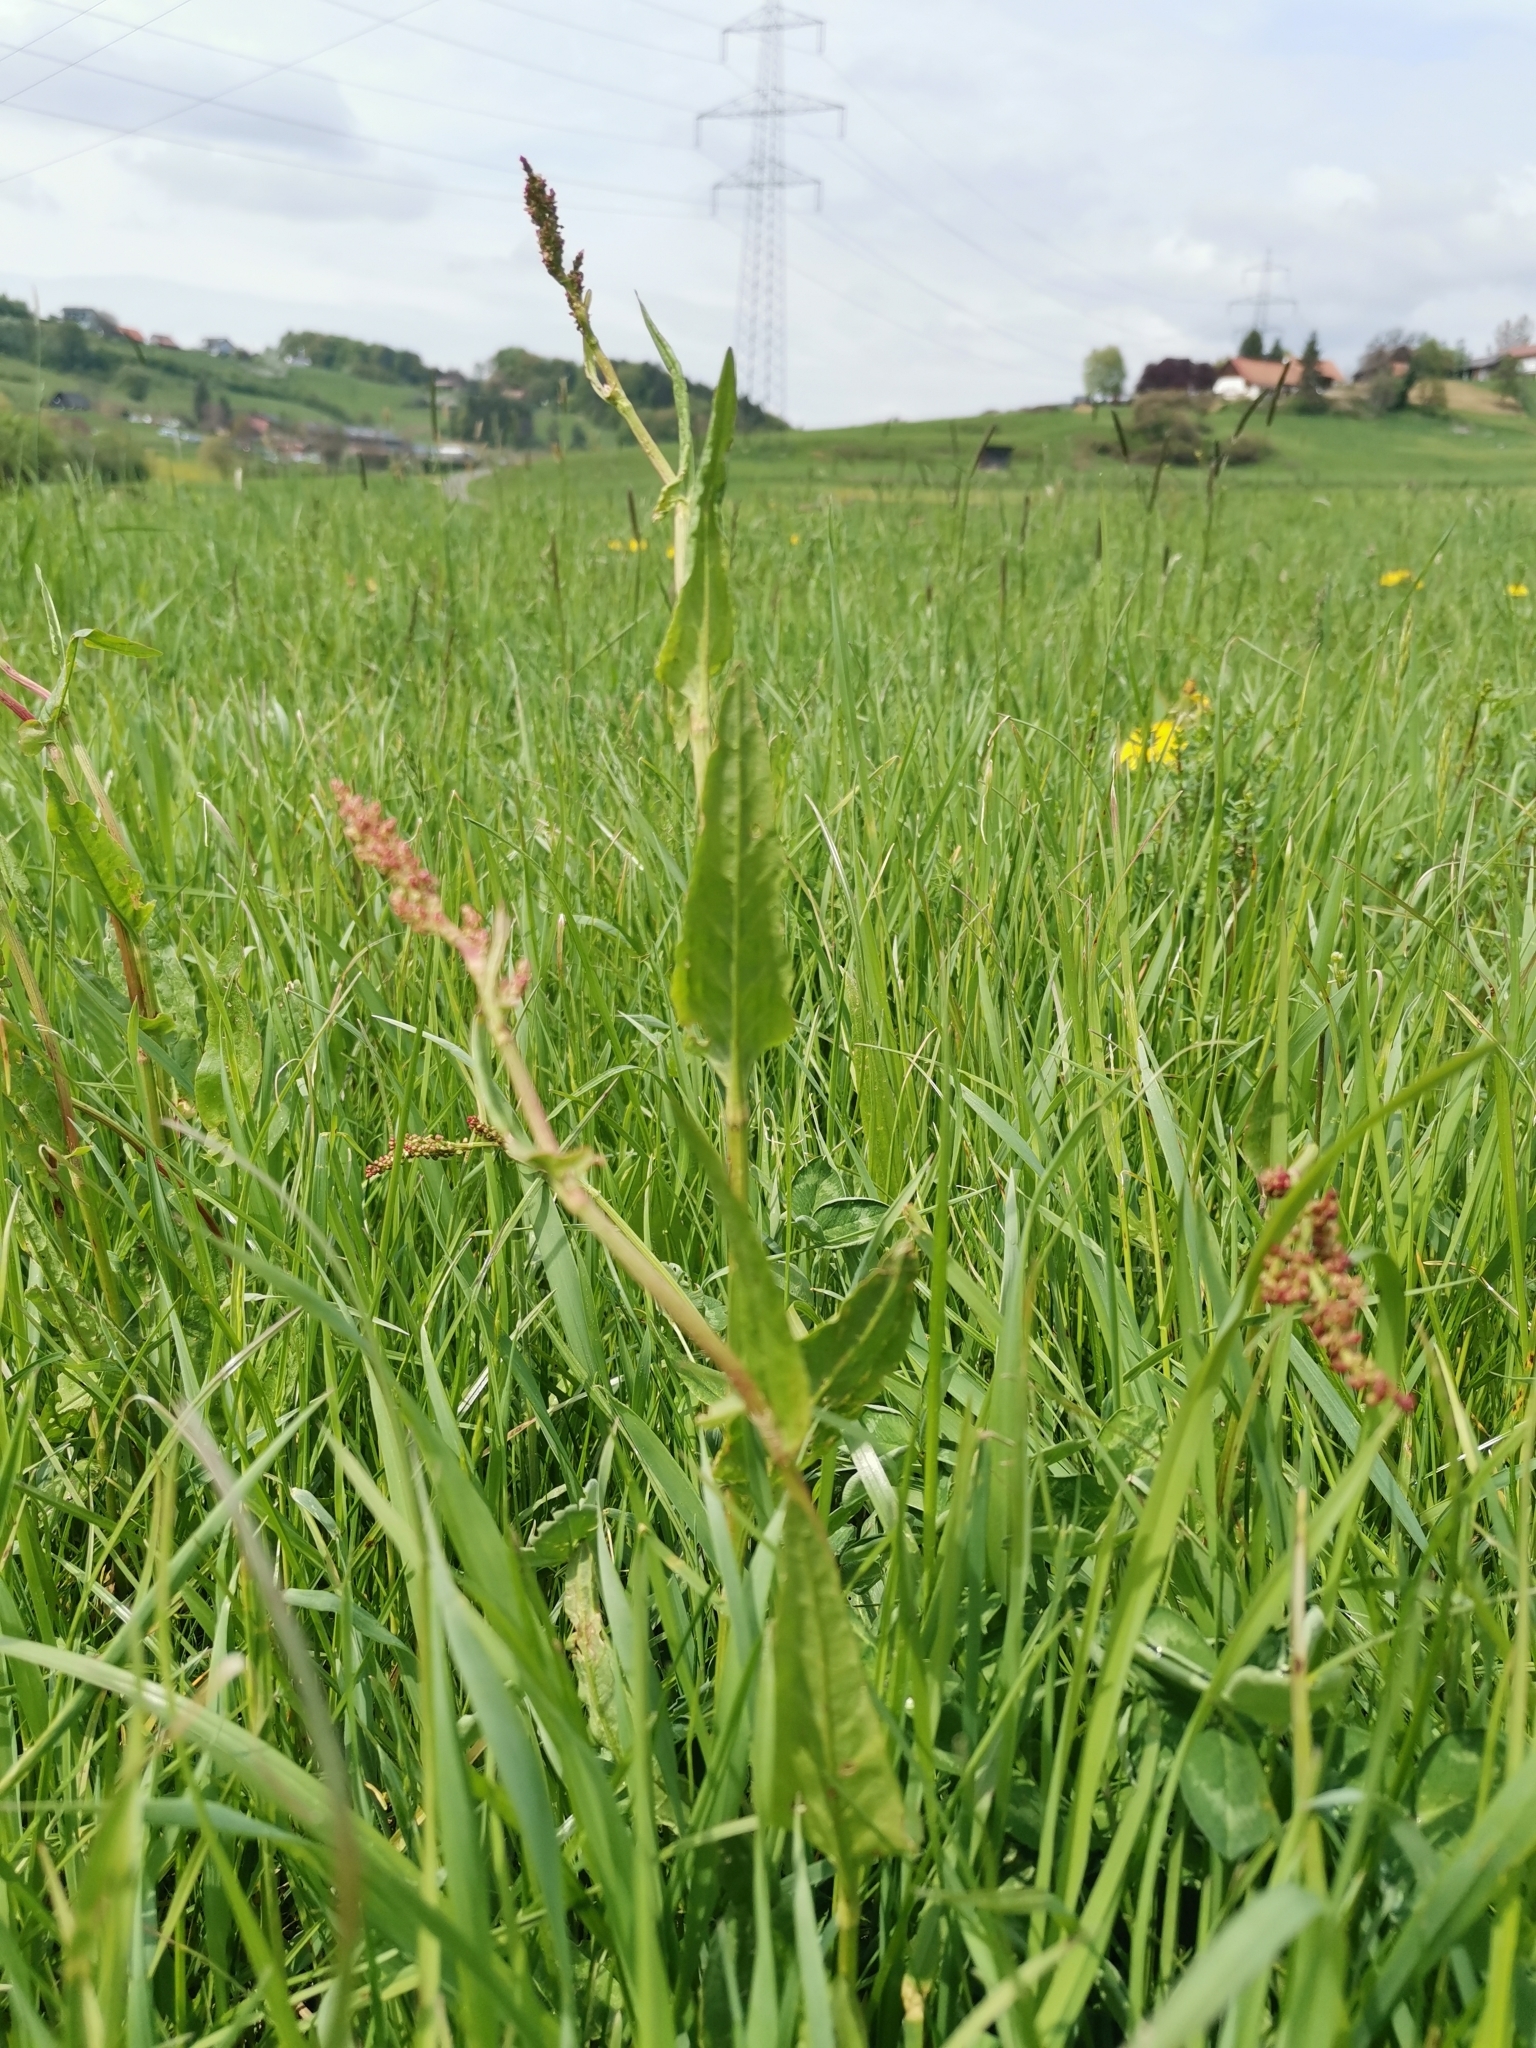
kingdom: Plantae
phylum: Tracheophyta
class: Magnoliopsida
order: Caryophyllales
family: Polygonaceae
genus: Rumex
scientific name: Rumex acetosa
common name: Garden sorrel
